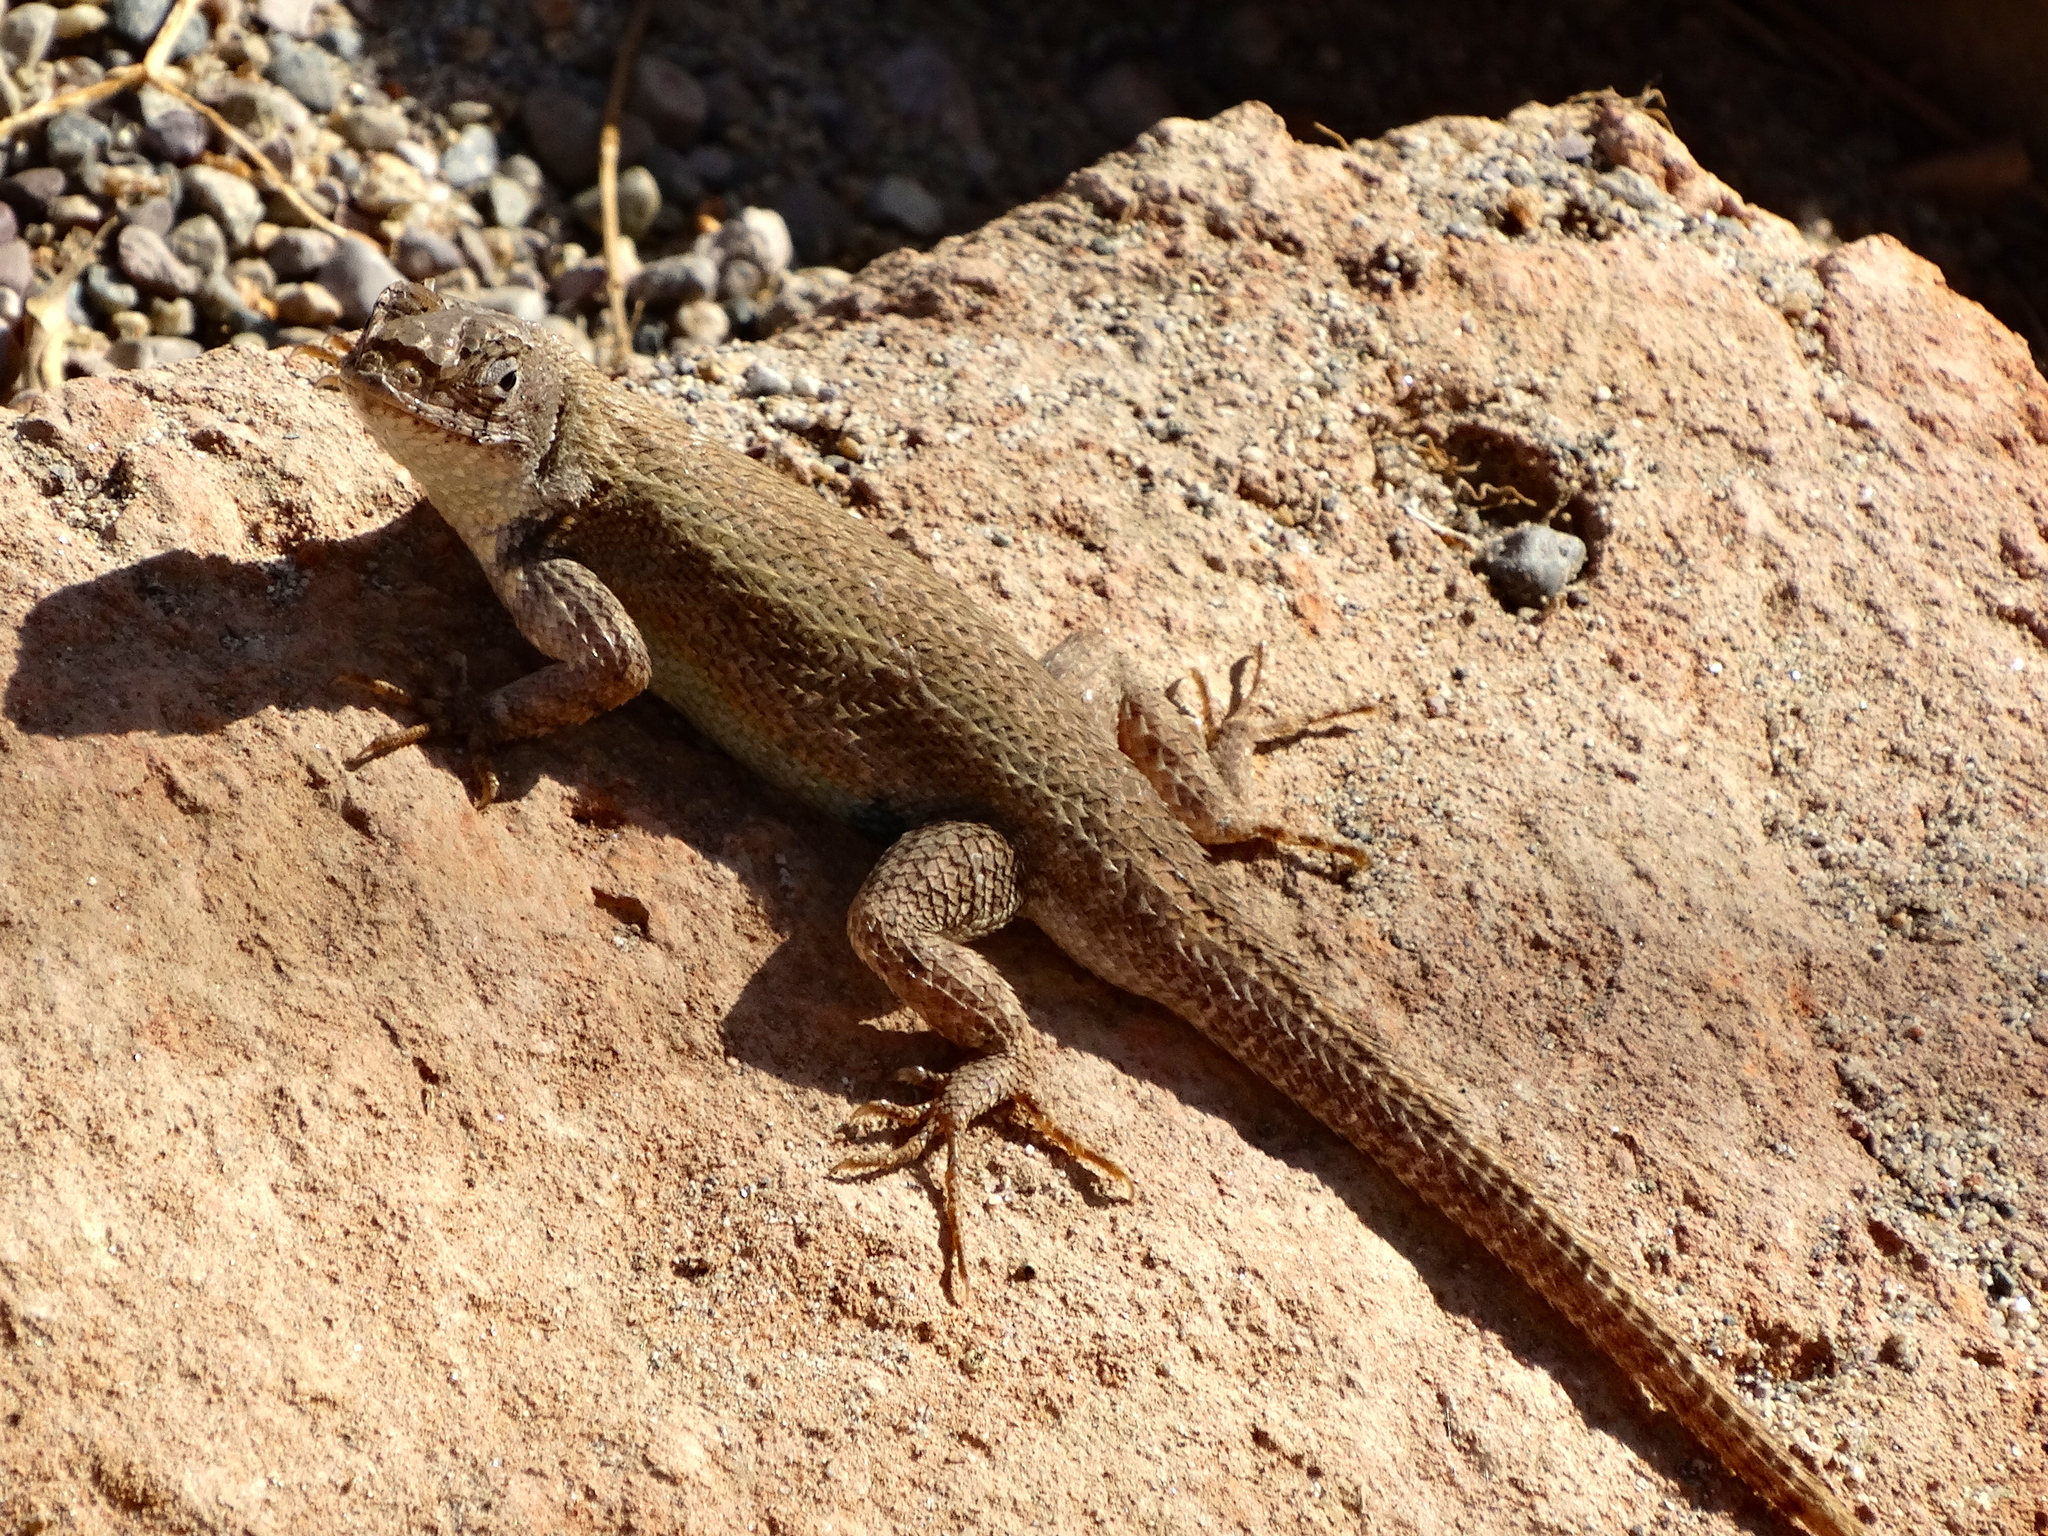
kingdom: Animalia
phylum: Chordata
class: Squamata
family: Phrynosomatidae
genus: Sceloporus
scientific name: Sceloporus nelsoni
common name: Nelson's spiny lizard
